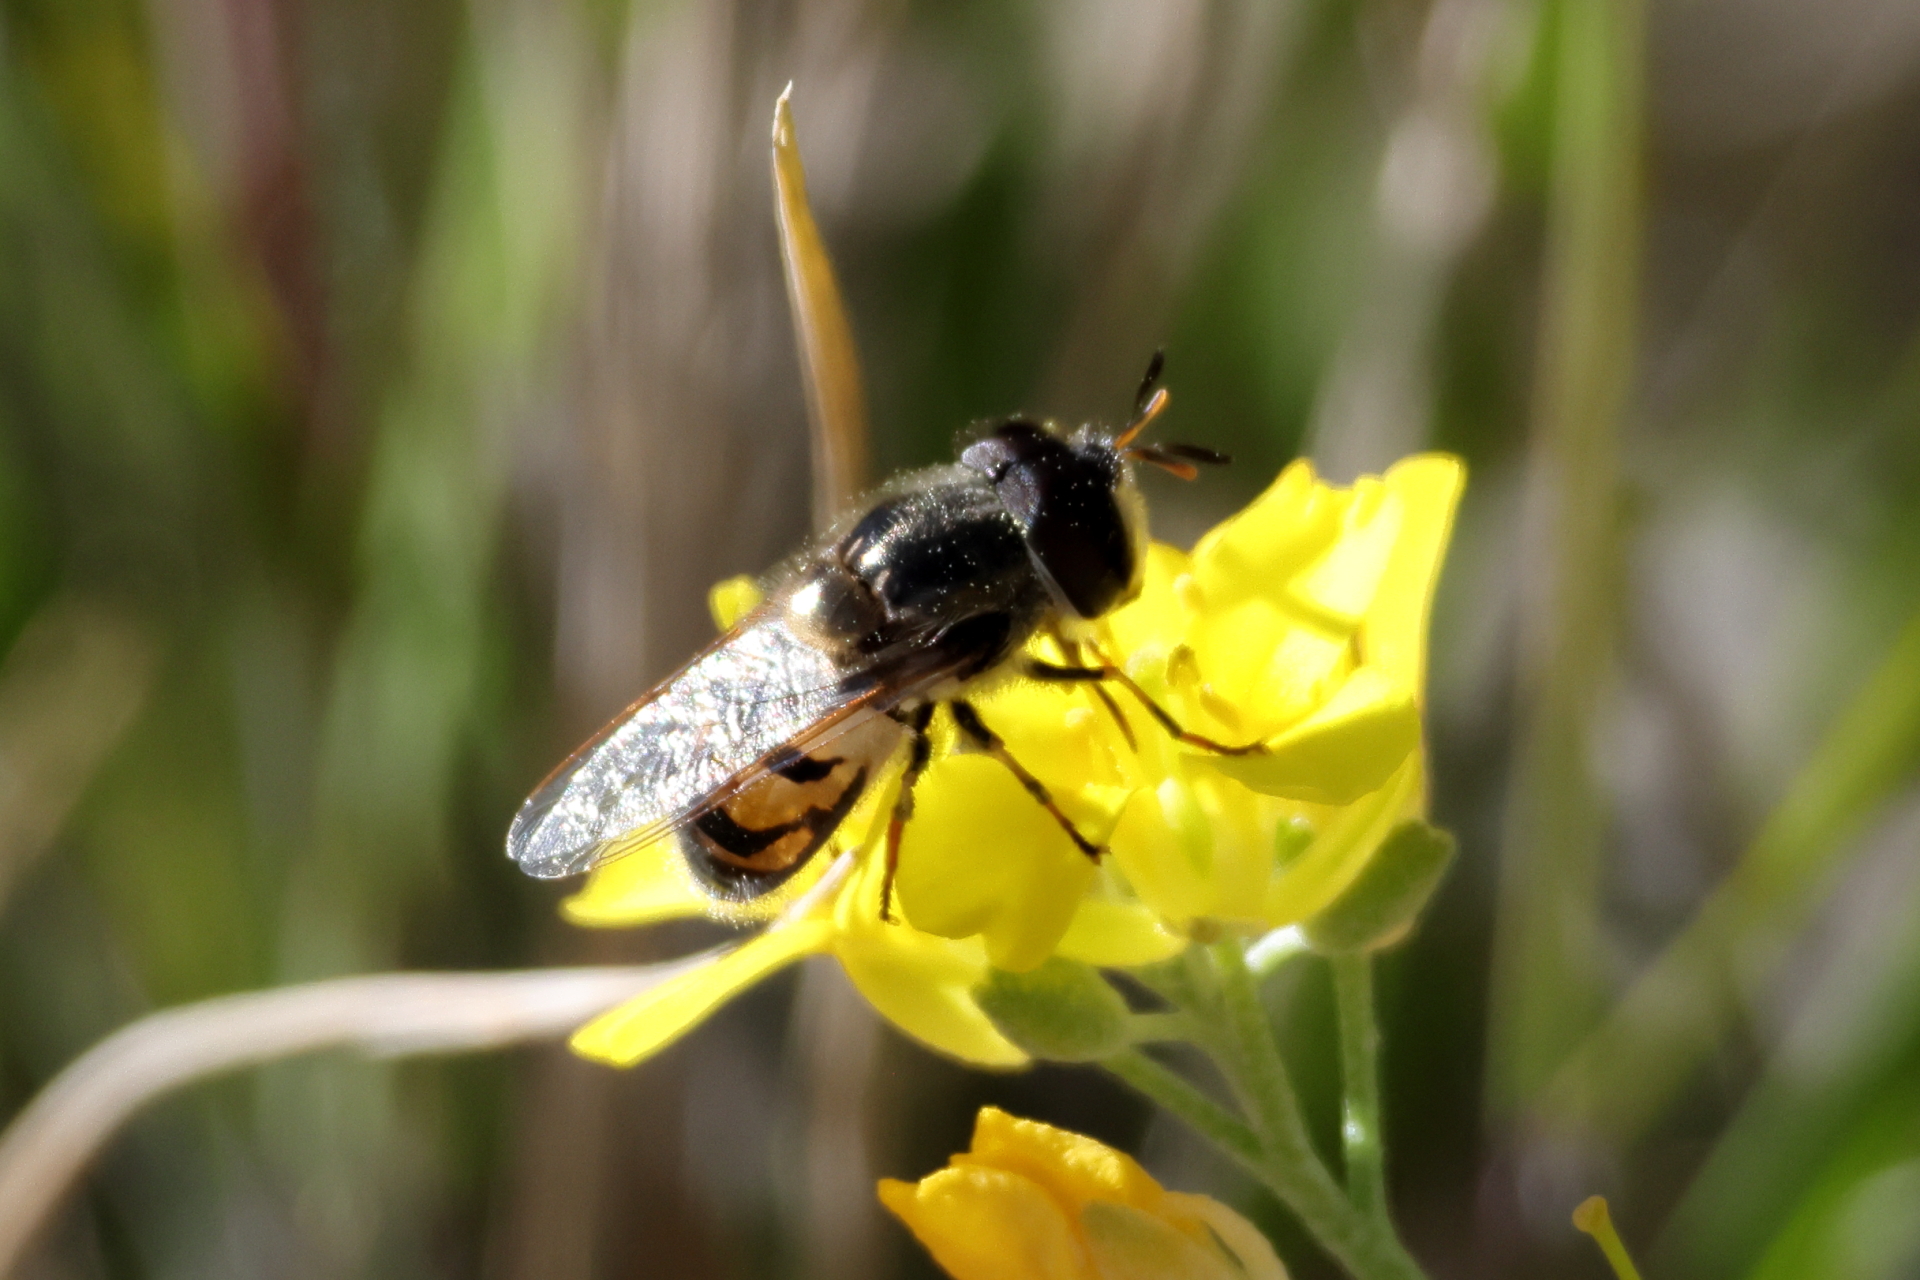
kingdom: Animalia
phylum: Arthropoda
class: Insecta
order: Diptera
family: Syrphidae
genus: Copestylum
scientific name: Copestylum marginatum
